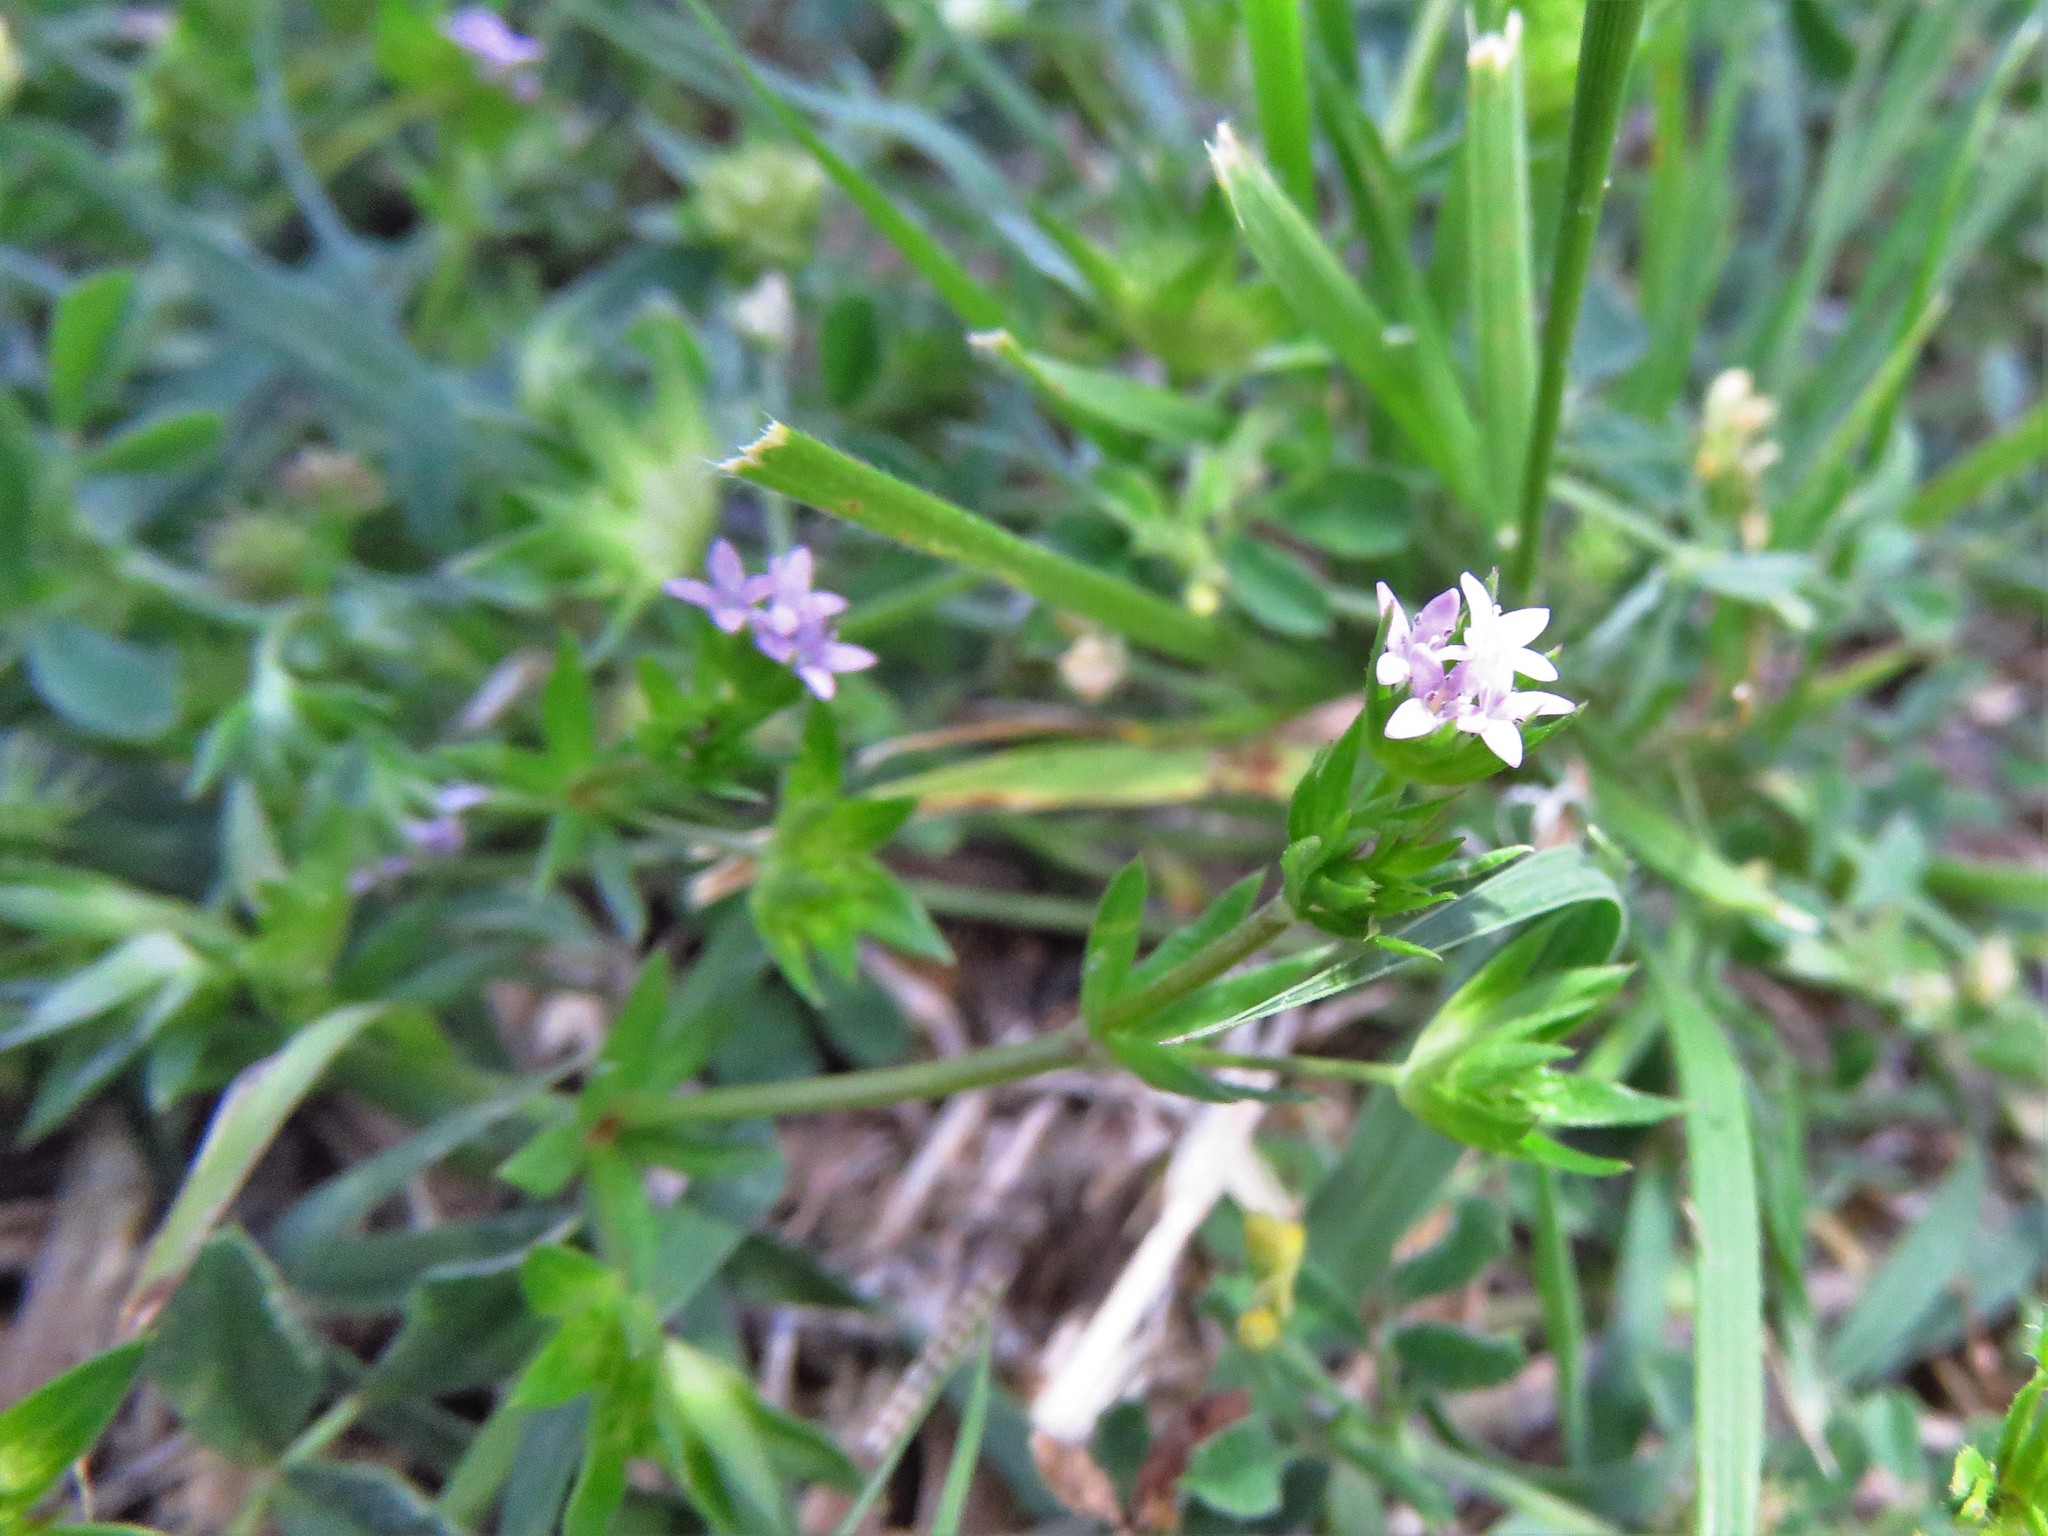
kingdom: Plantae
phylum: Tracheophyta
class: Magnoliopsida
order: Gentianales
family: Rubiaceae
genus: Sherardia
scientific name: Sherardia arvensis
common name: Field madder
